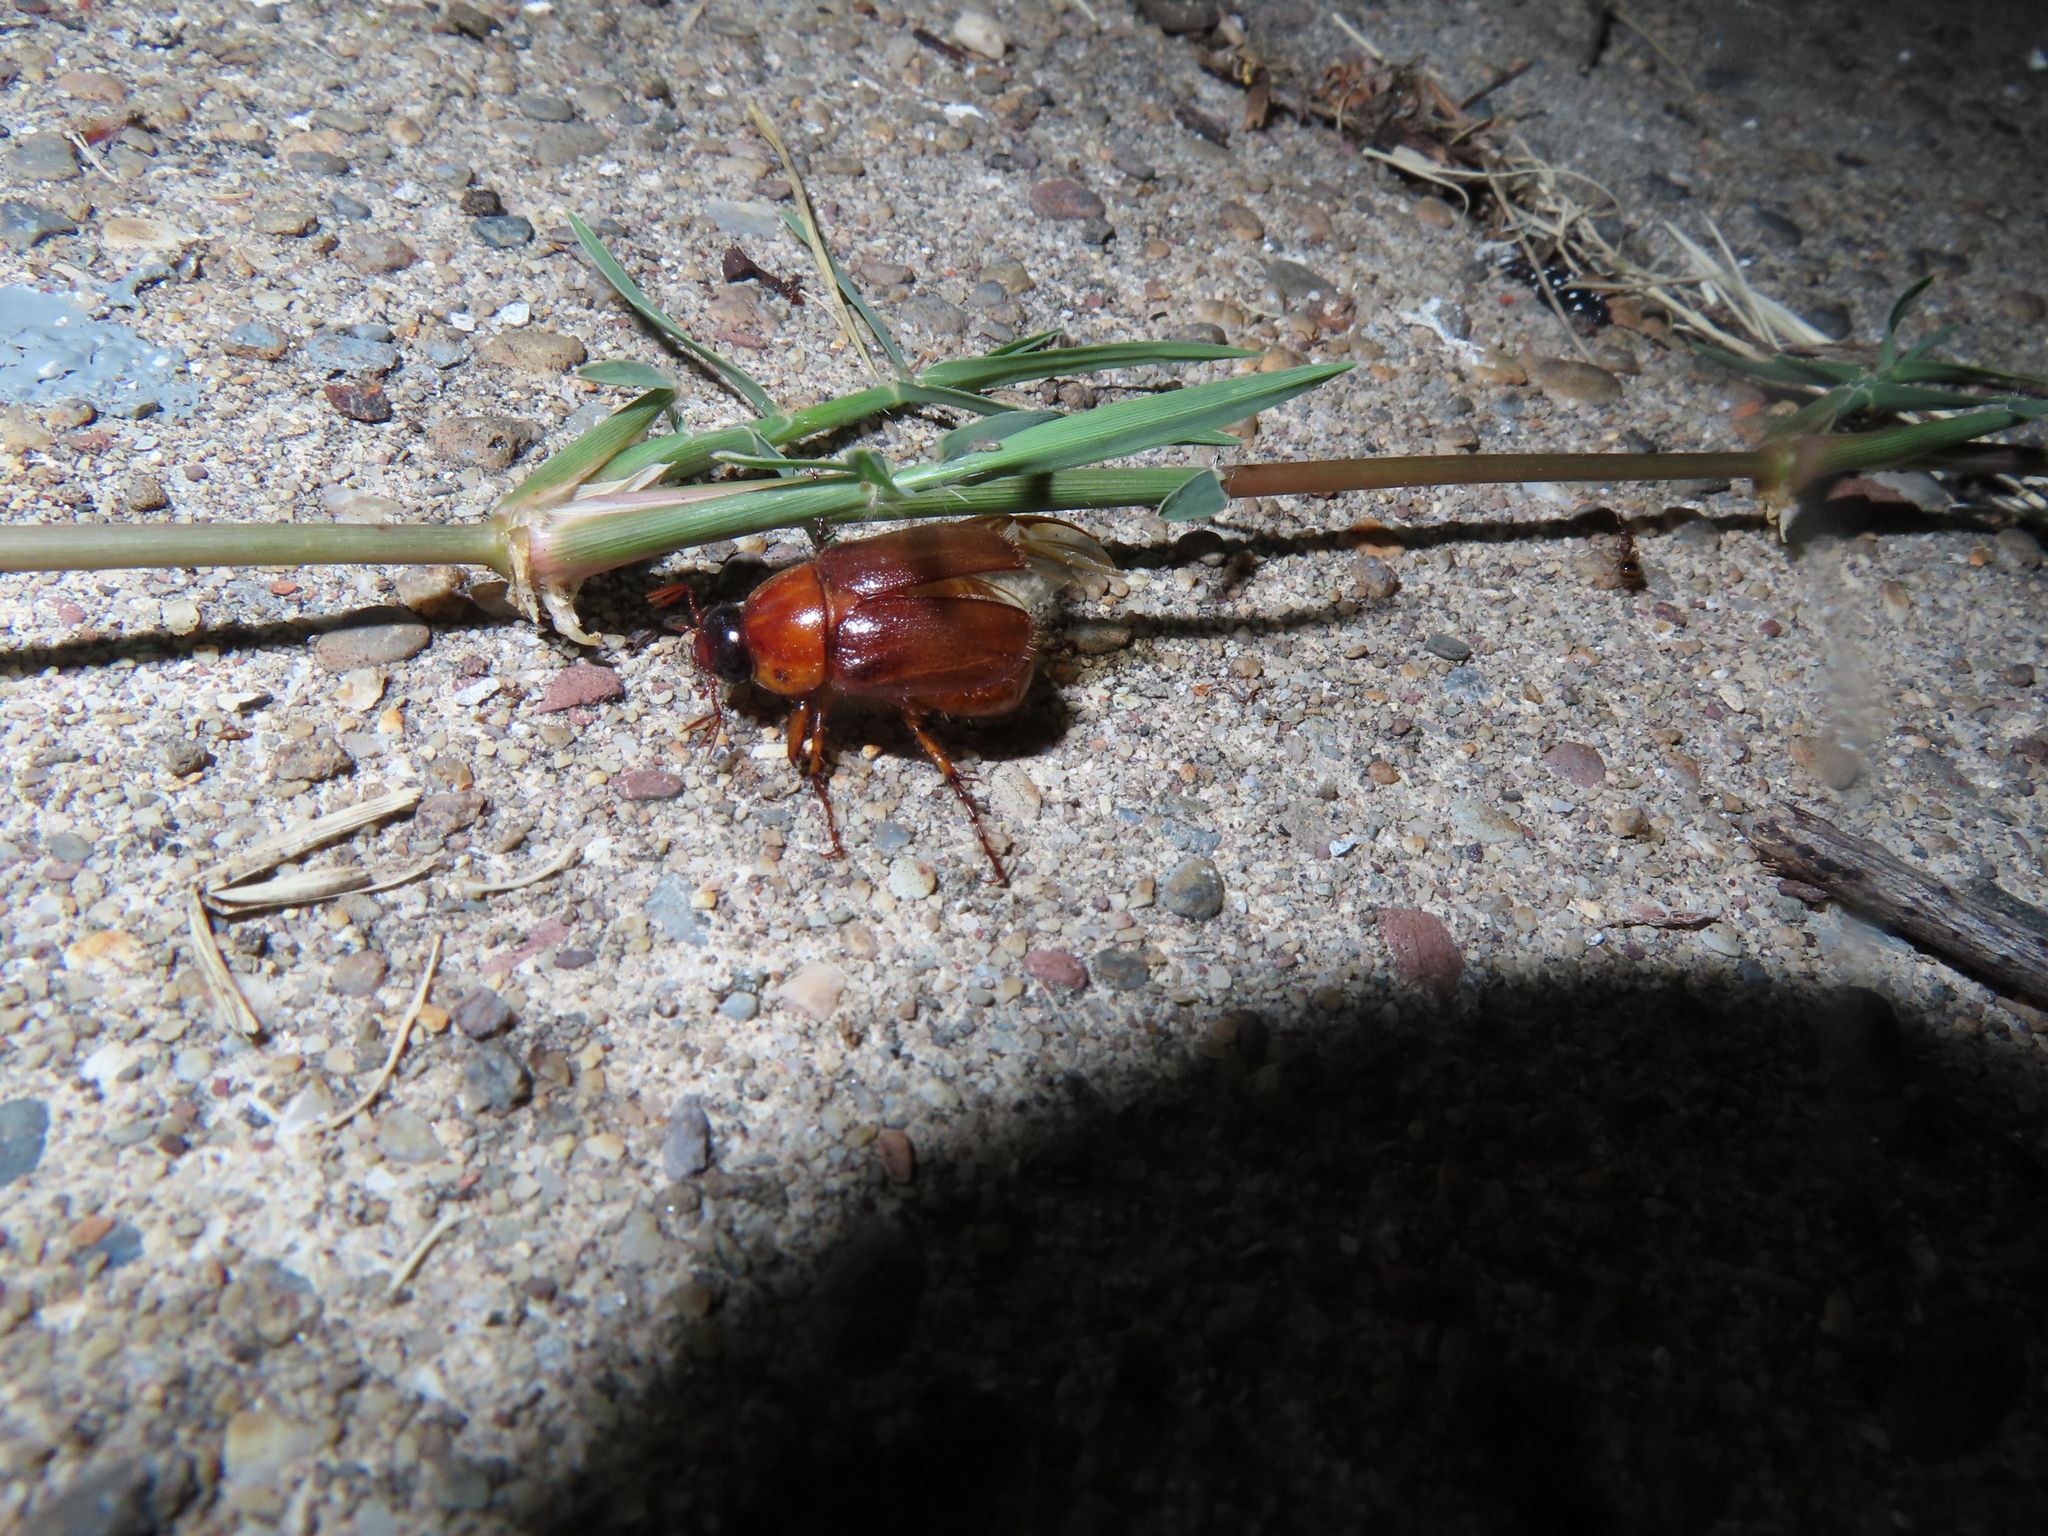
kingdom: Animalia
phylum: Arthropoda
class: Insecta
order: Coleoptera
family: Scarabaeidae
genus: Cyclocephala
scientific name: Cyclocephala lurida
